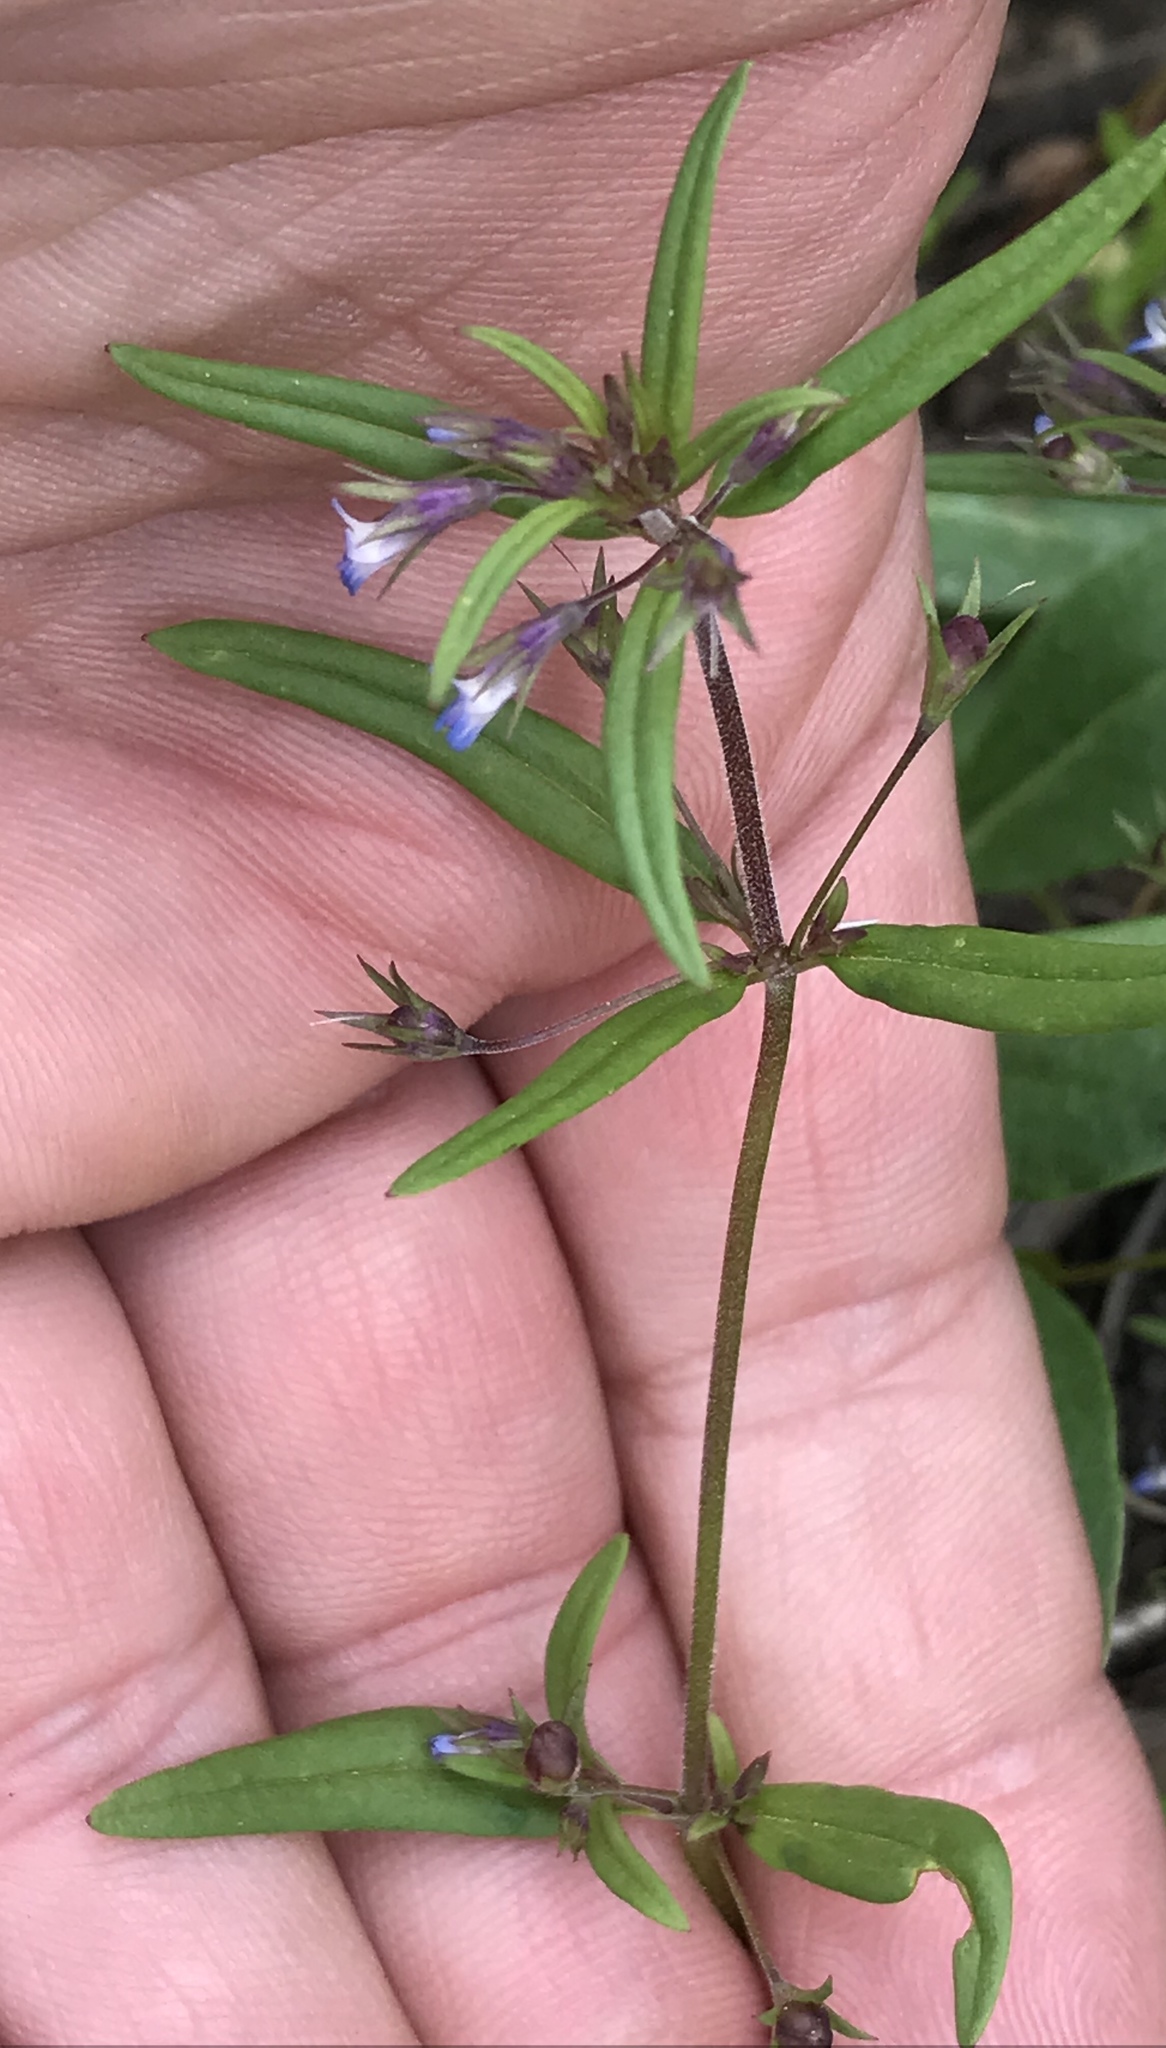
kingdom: Plantae
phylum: Tracheophyta
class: Magnoliopsida
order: Lamiales
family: Plantaginaceae
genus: Collinsia
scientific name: Collinsia parviflora
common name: Blue-lips
